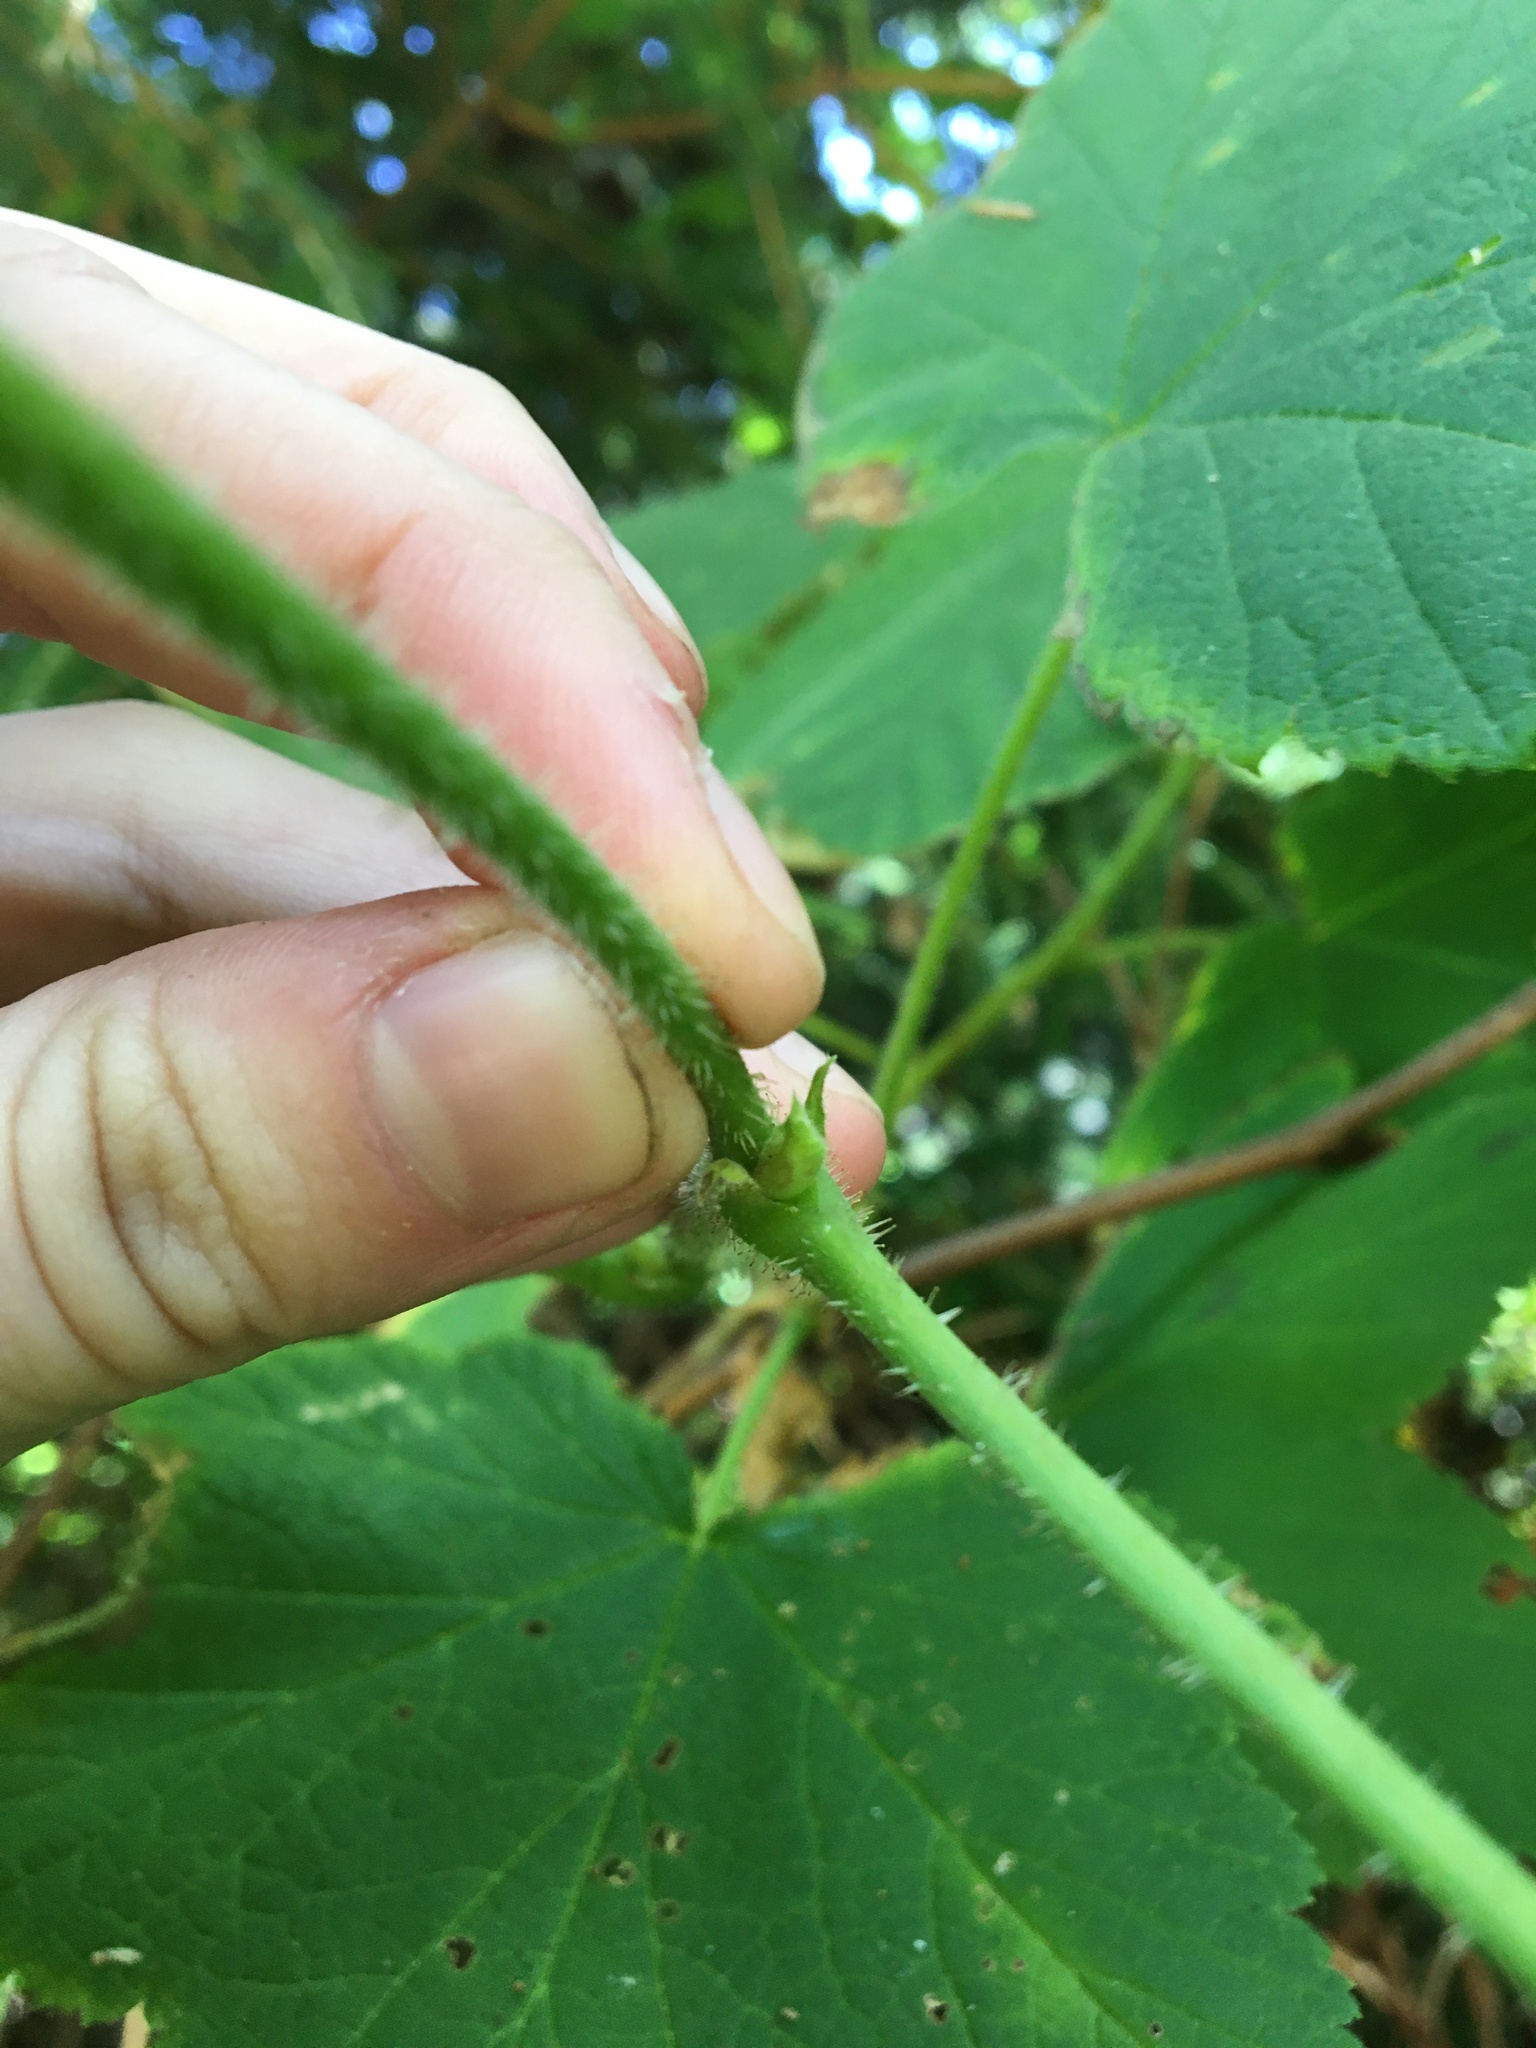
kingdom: Plantae
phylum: Tracheophyta
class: Magnoliopsida
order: Rosales
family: Rosaceae
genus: Rubus
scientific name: Rubus parviflorus
